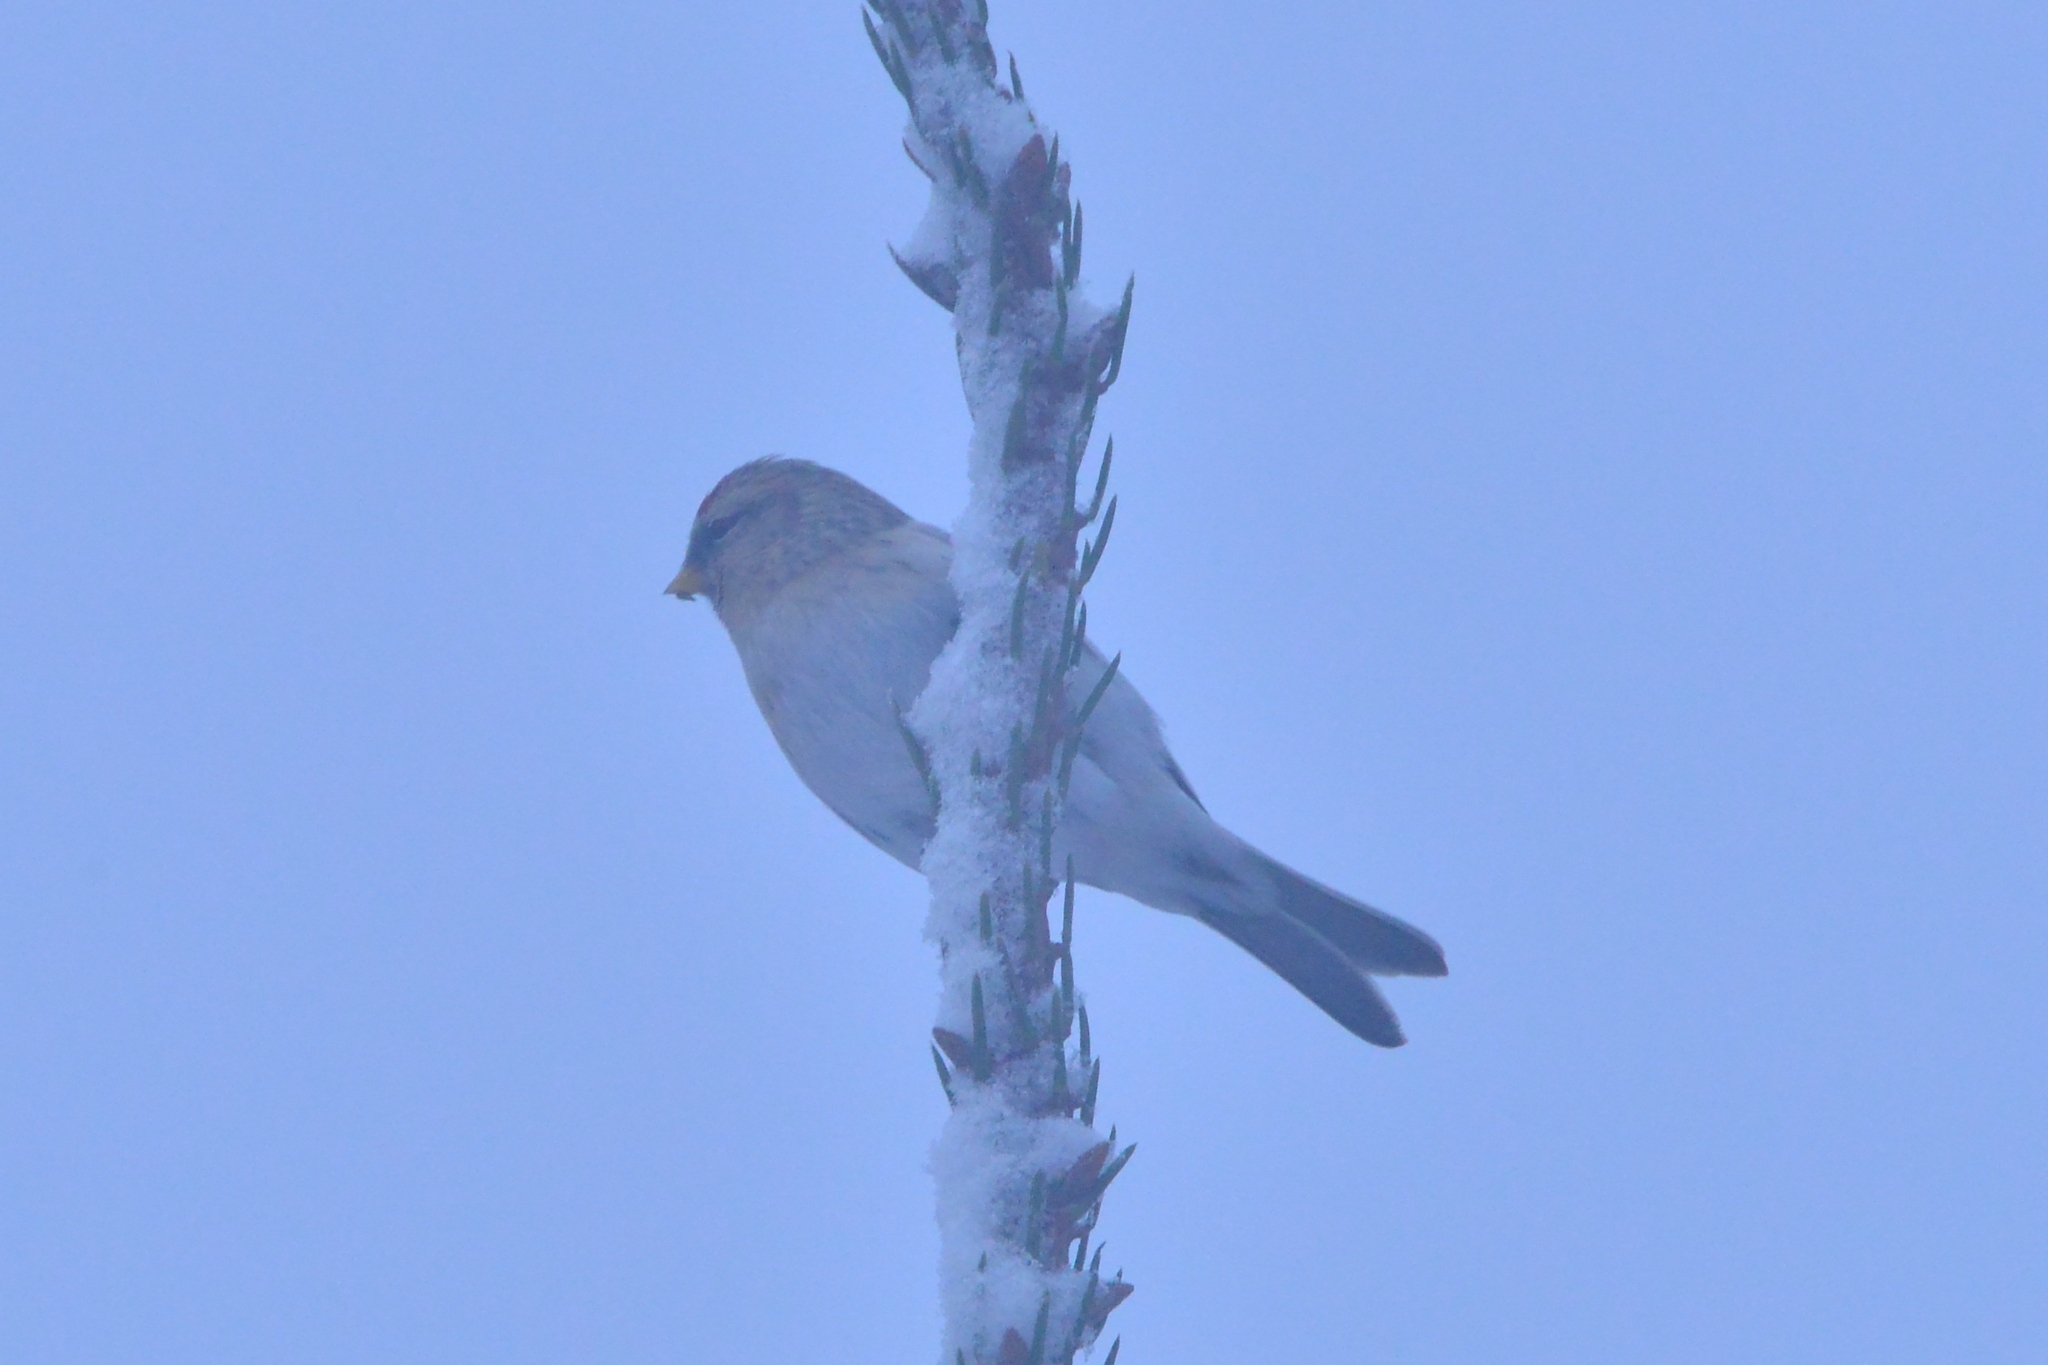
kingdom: Animalia
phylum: Chordata
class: Aves
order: Passeriformes
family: Fringillidae
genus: Acanthis
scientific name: Acanthis flammea
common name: Common redpoll
